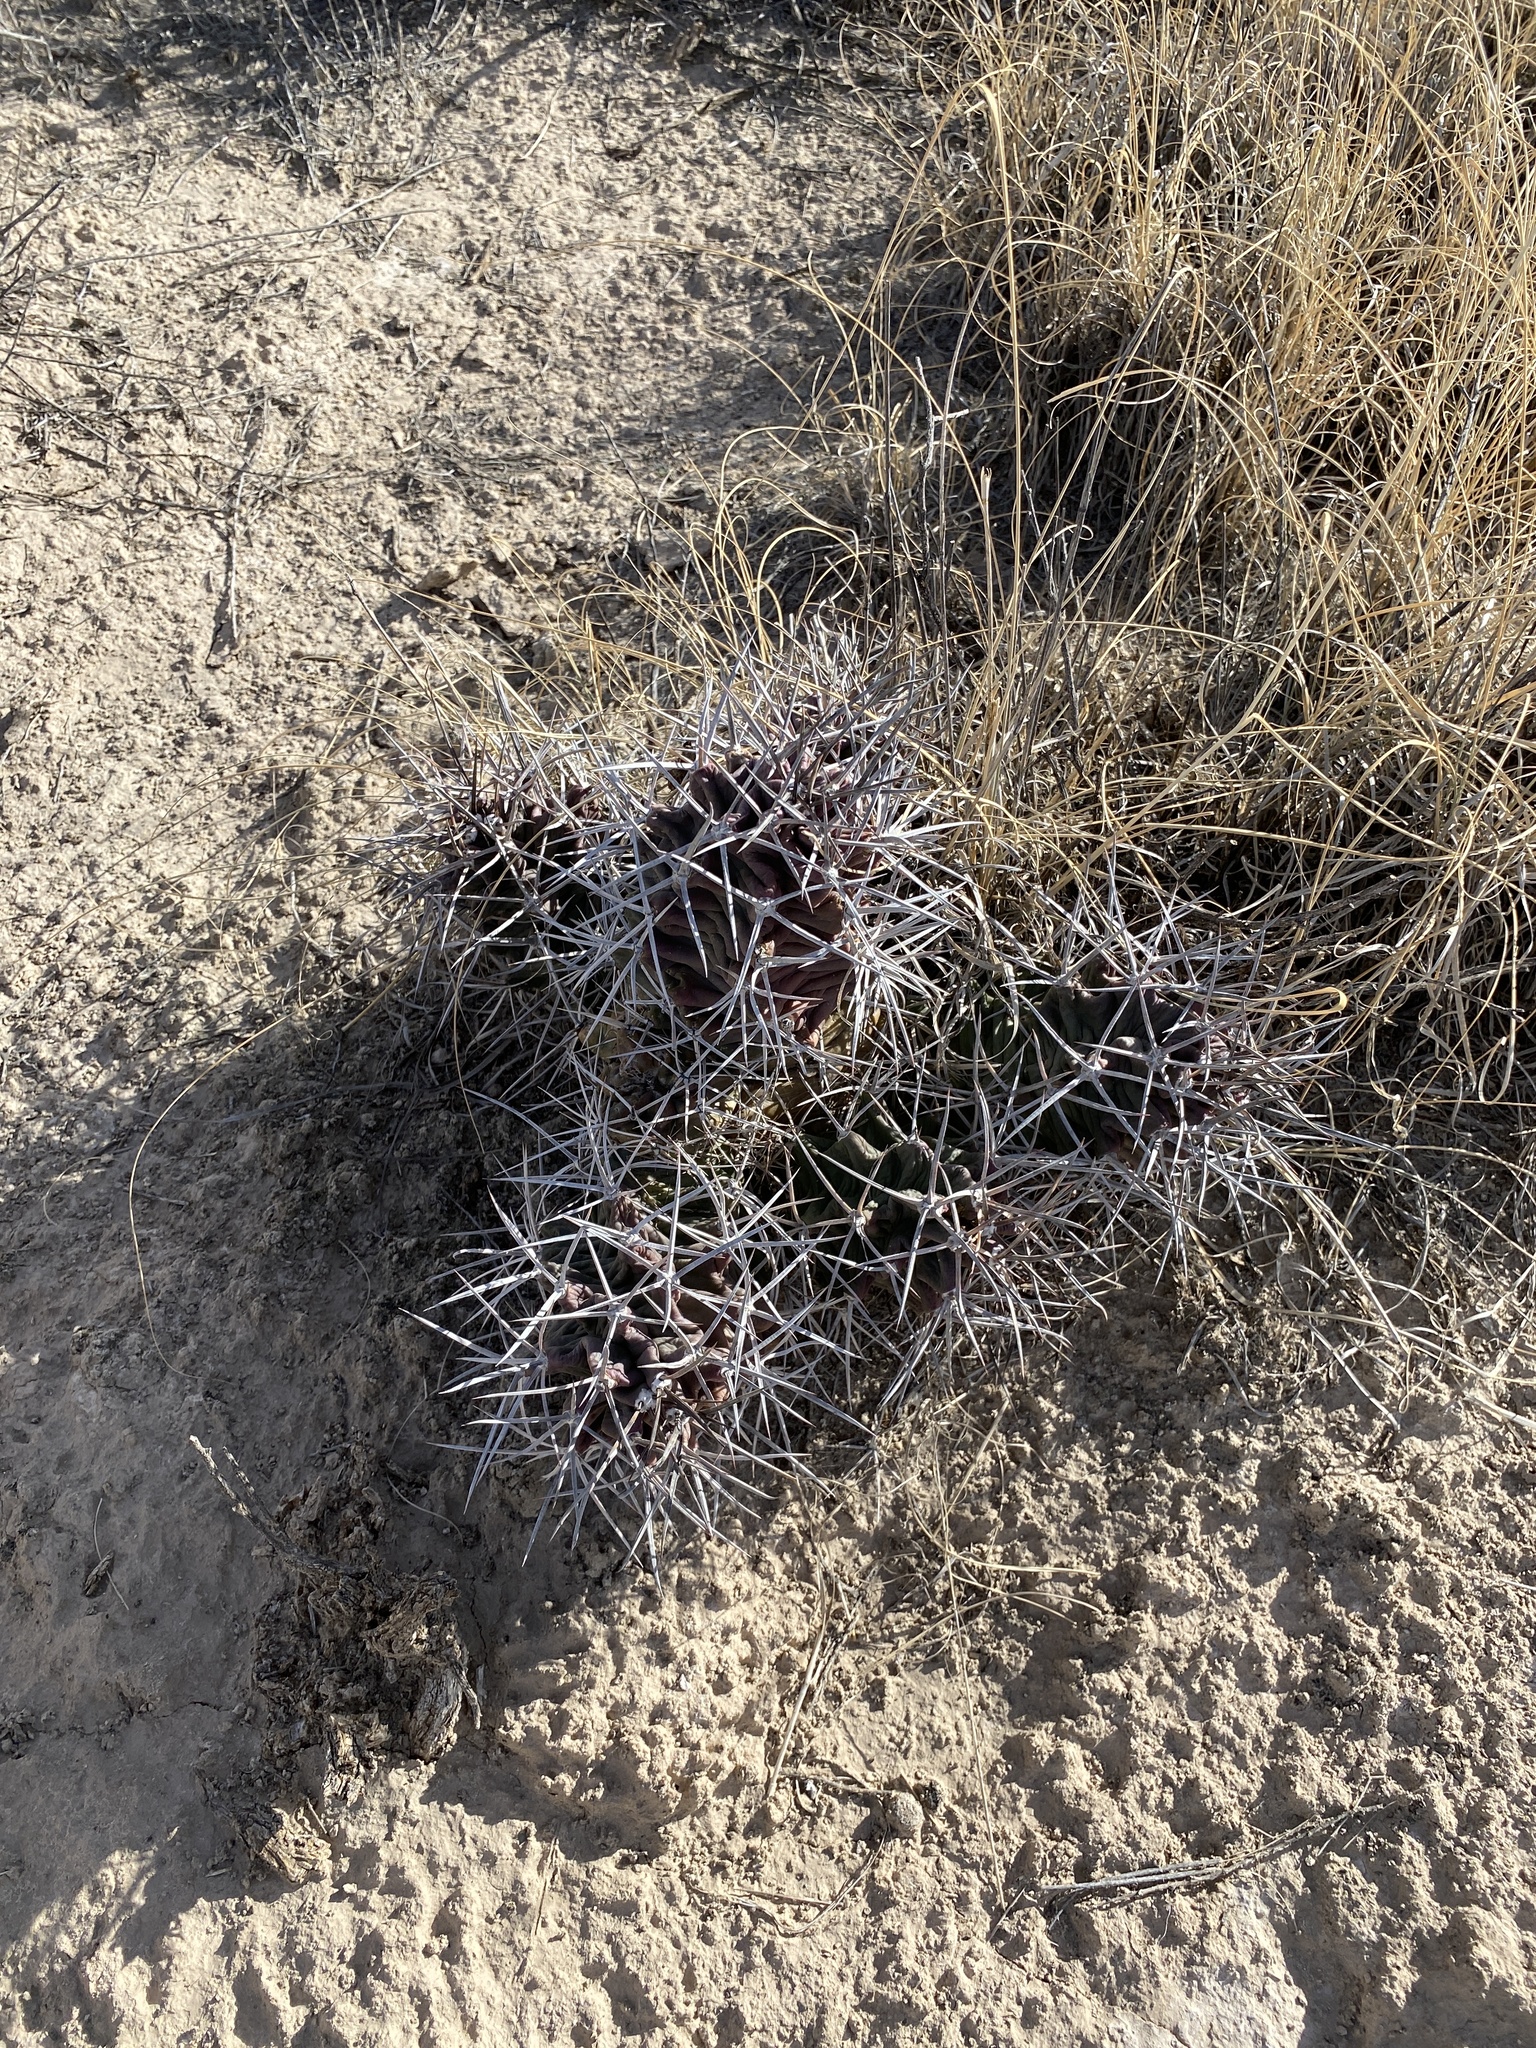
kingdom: Plantae
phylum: Tracheophyta
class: Magnoliopsida
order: Caryophyllales
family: Cactaceae
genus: Echinocereus
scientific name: Echinocereus triglochidiatus
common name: Claretcup hedgehog
